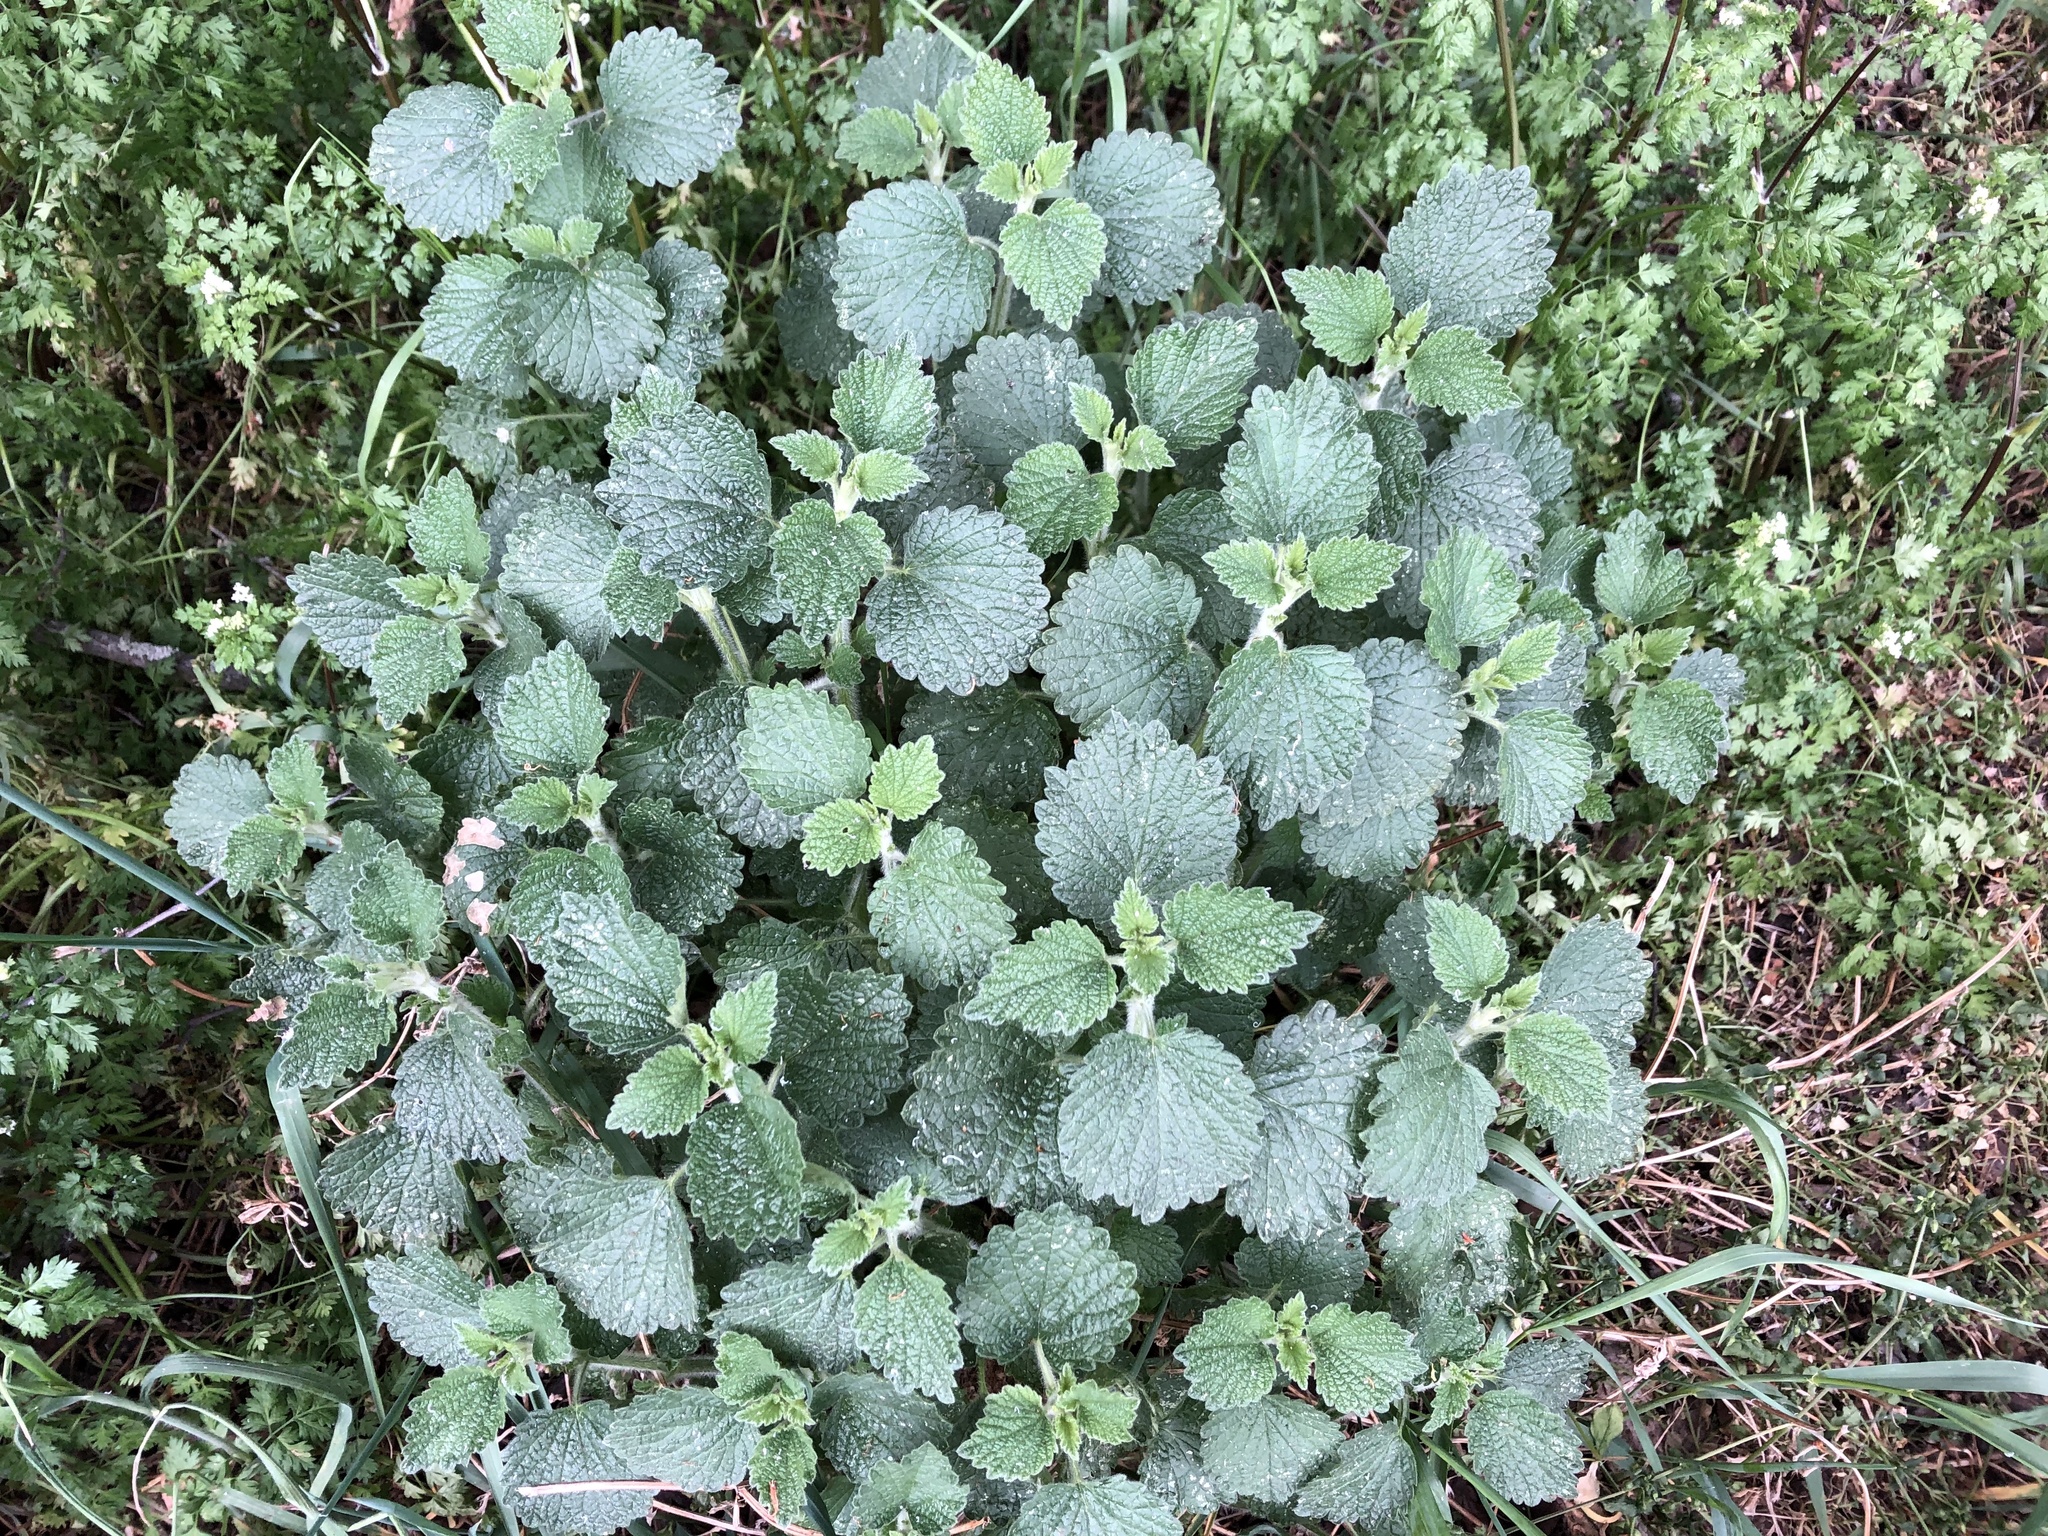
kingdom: Plantae
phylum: Tracheophyta
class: Magnoliopsida
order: Lamiales
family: Lamiaceae
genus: Ballota
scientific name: Ballota nigra
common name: Black horehound
